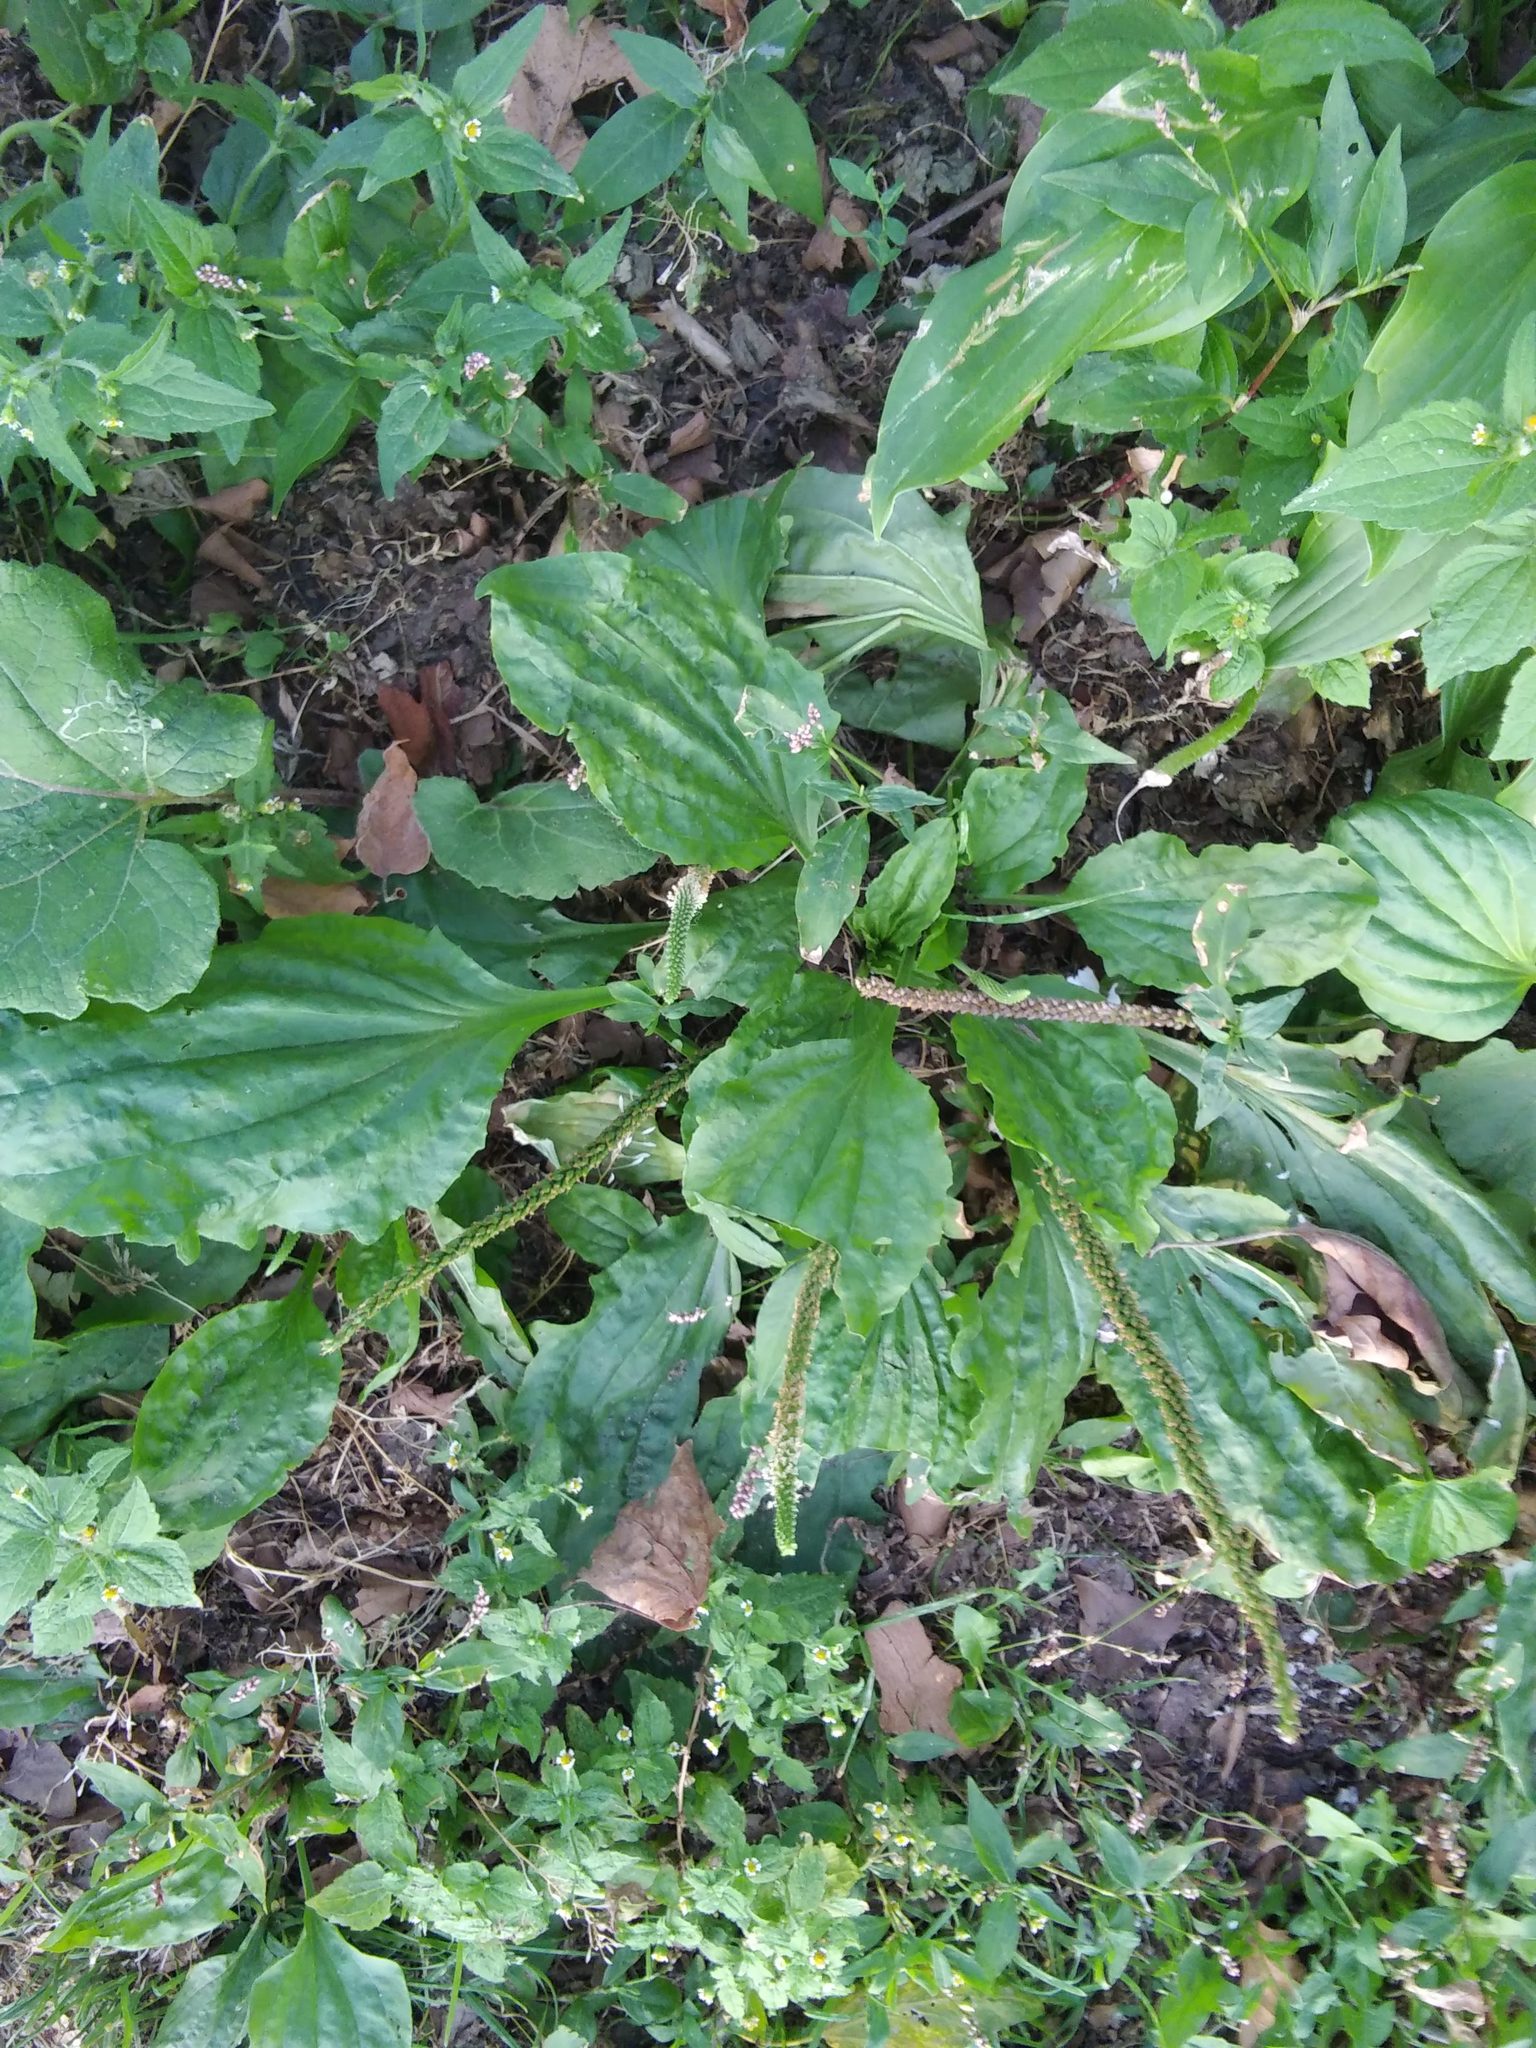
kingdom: Plantae
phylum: Tracheophyta
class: Magnoliopsida
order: Lamiales
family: Plantaginaceae
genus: Plantago
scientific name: Plantago major
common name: Common plantain
